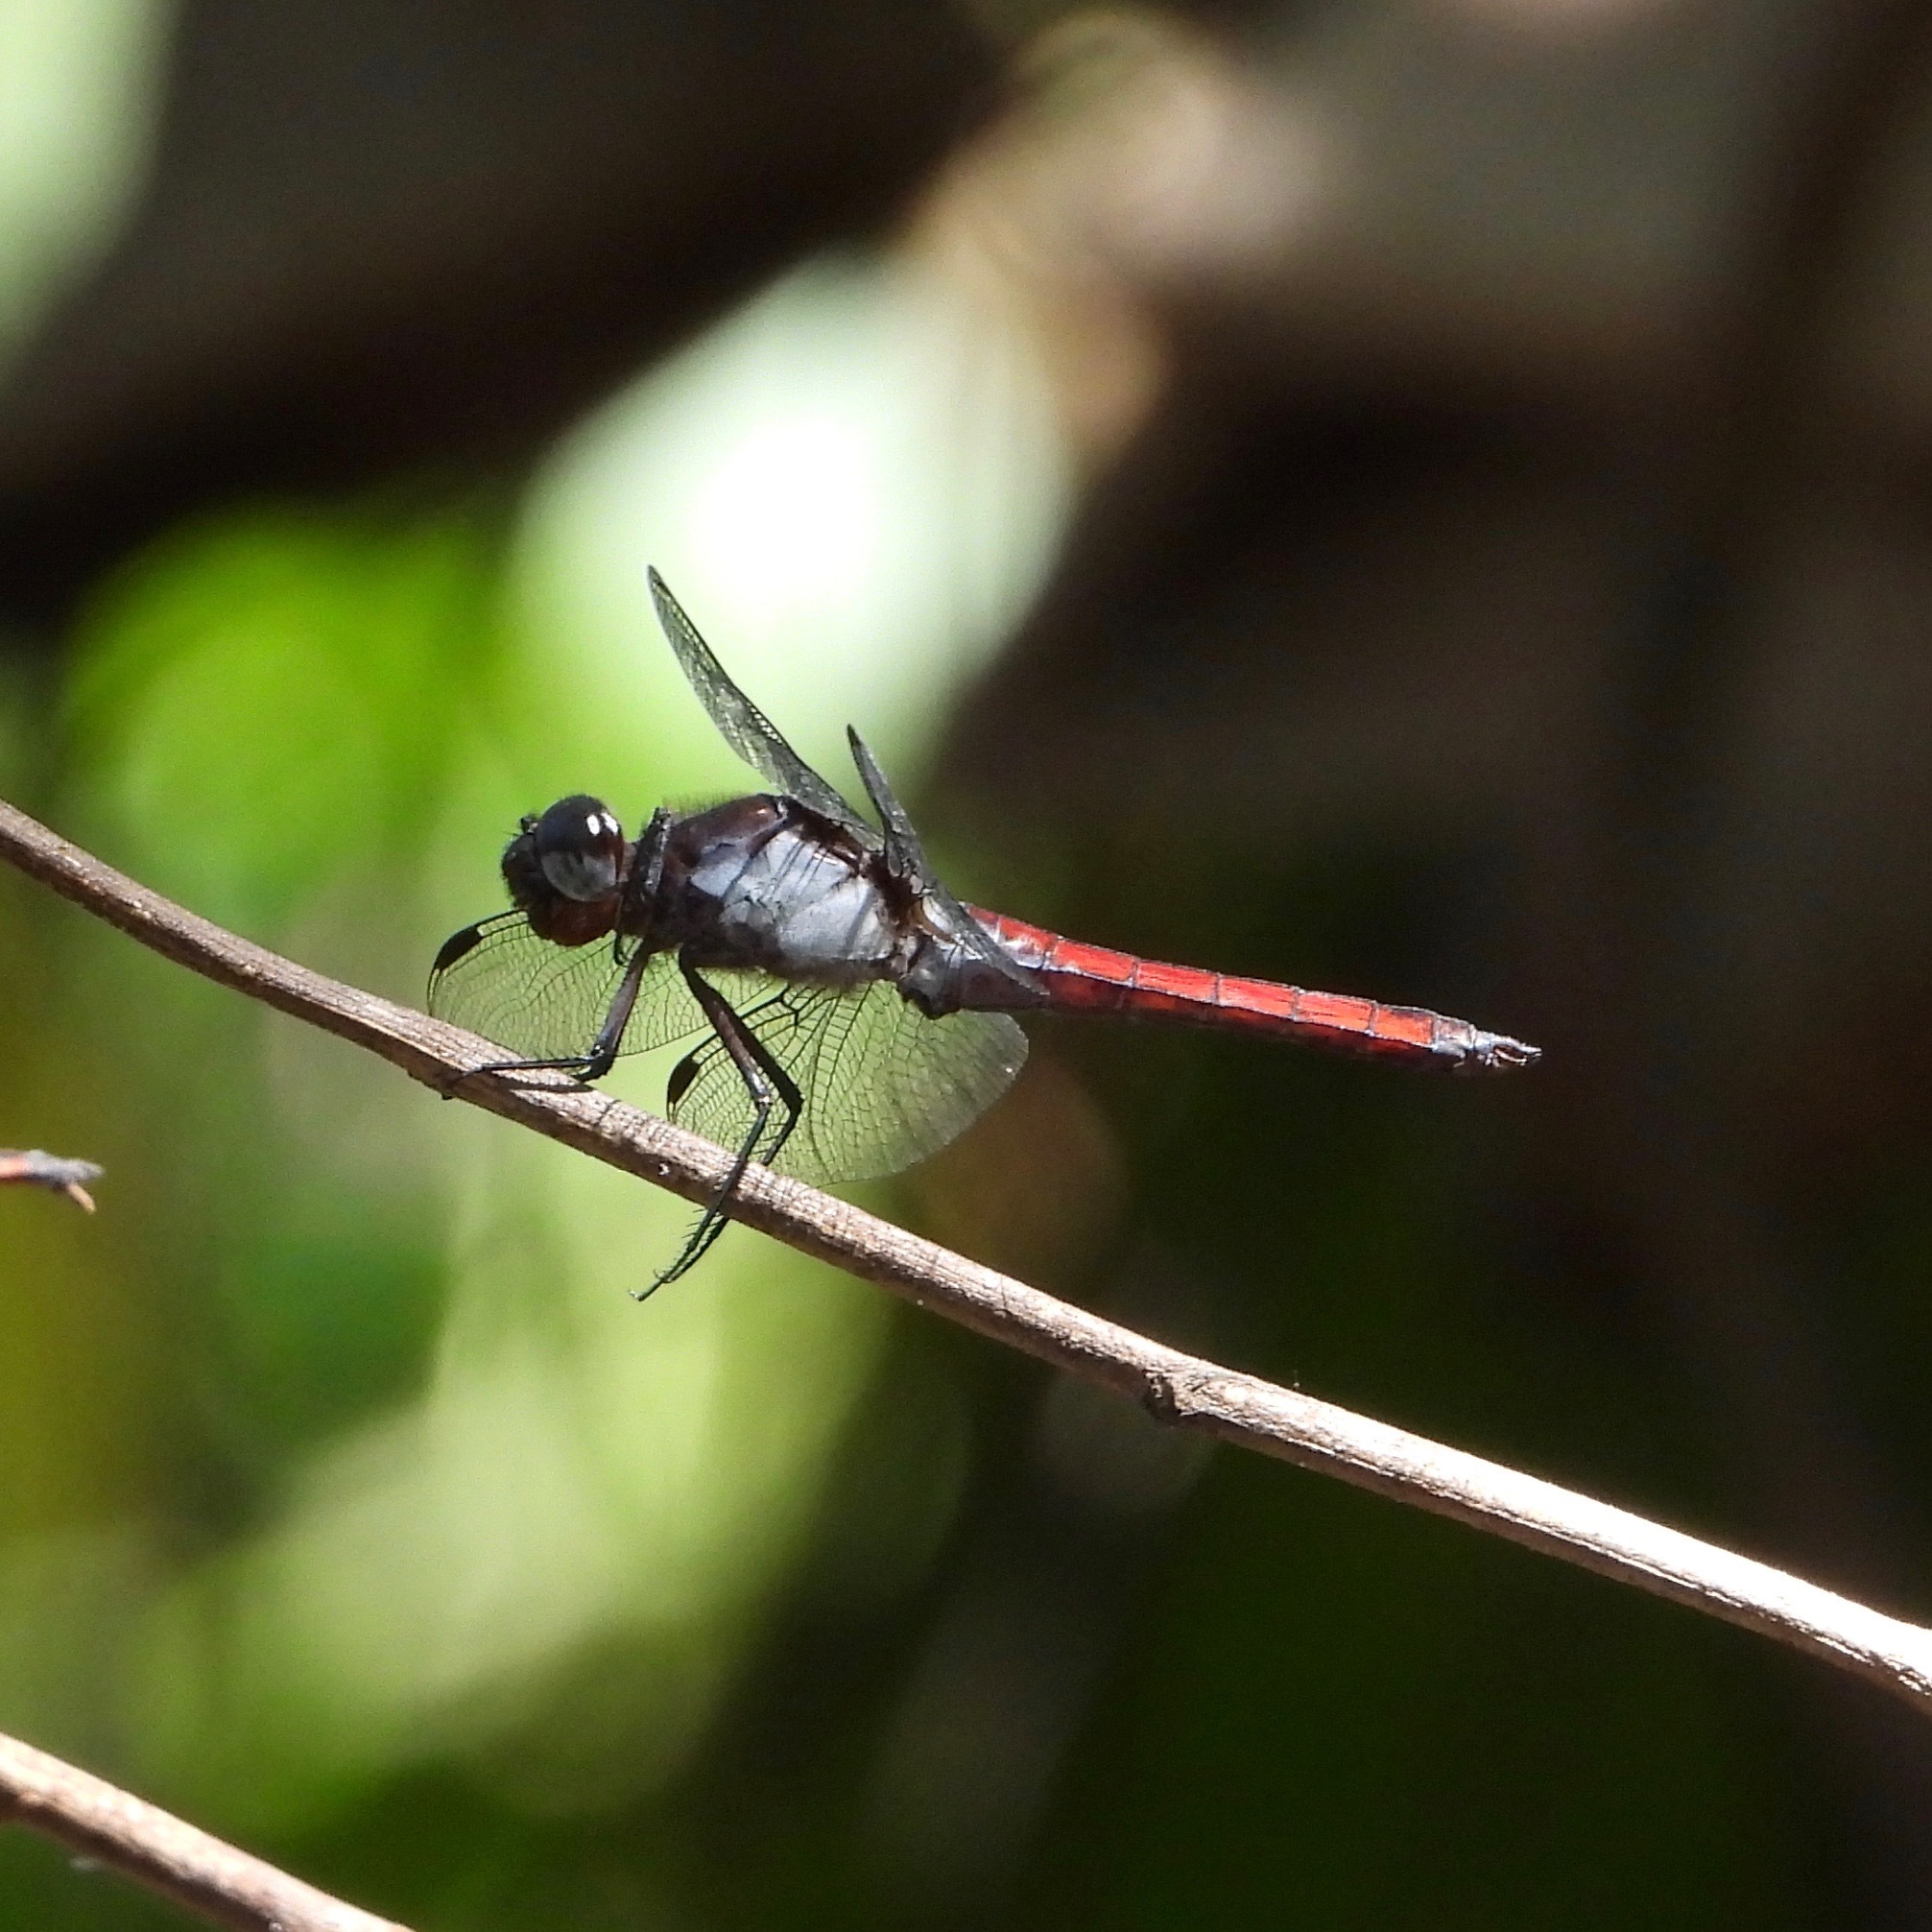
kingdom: Animalia
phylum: Arthropoda
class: Insecta
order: Odonata
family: Libellulidae
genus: Libellula
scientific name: Libellula herculea
